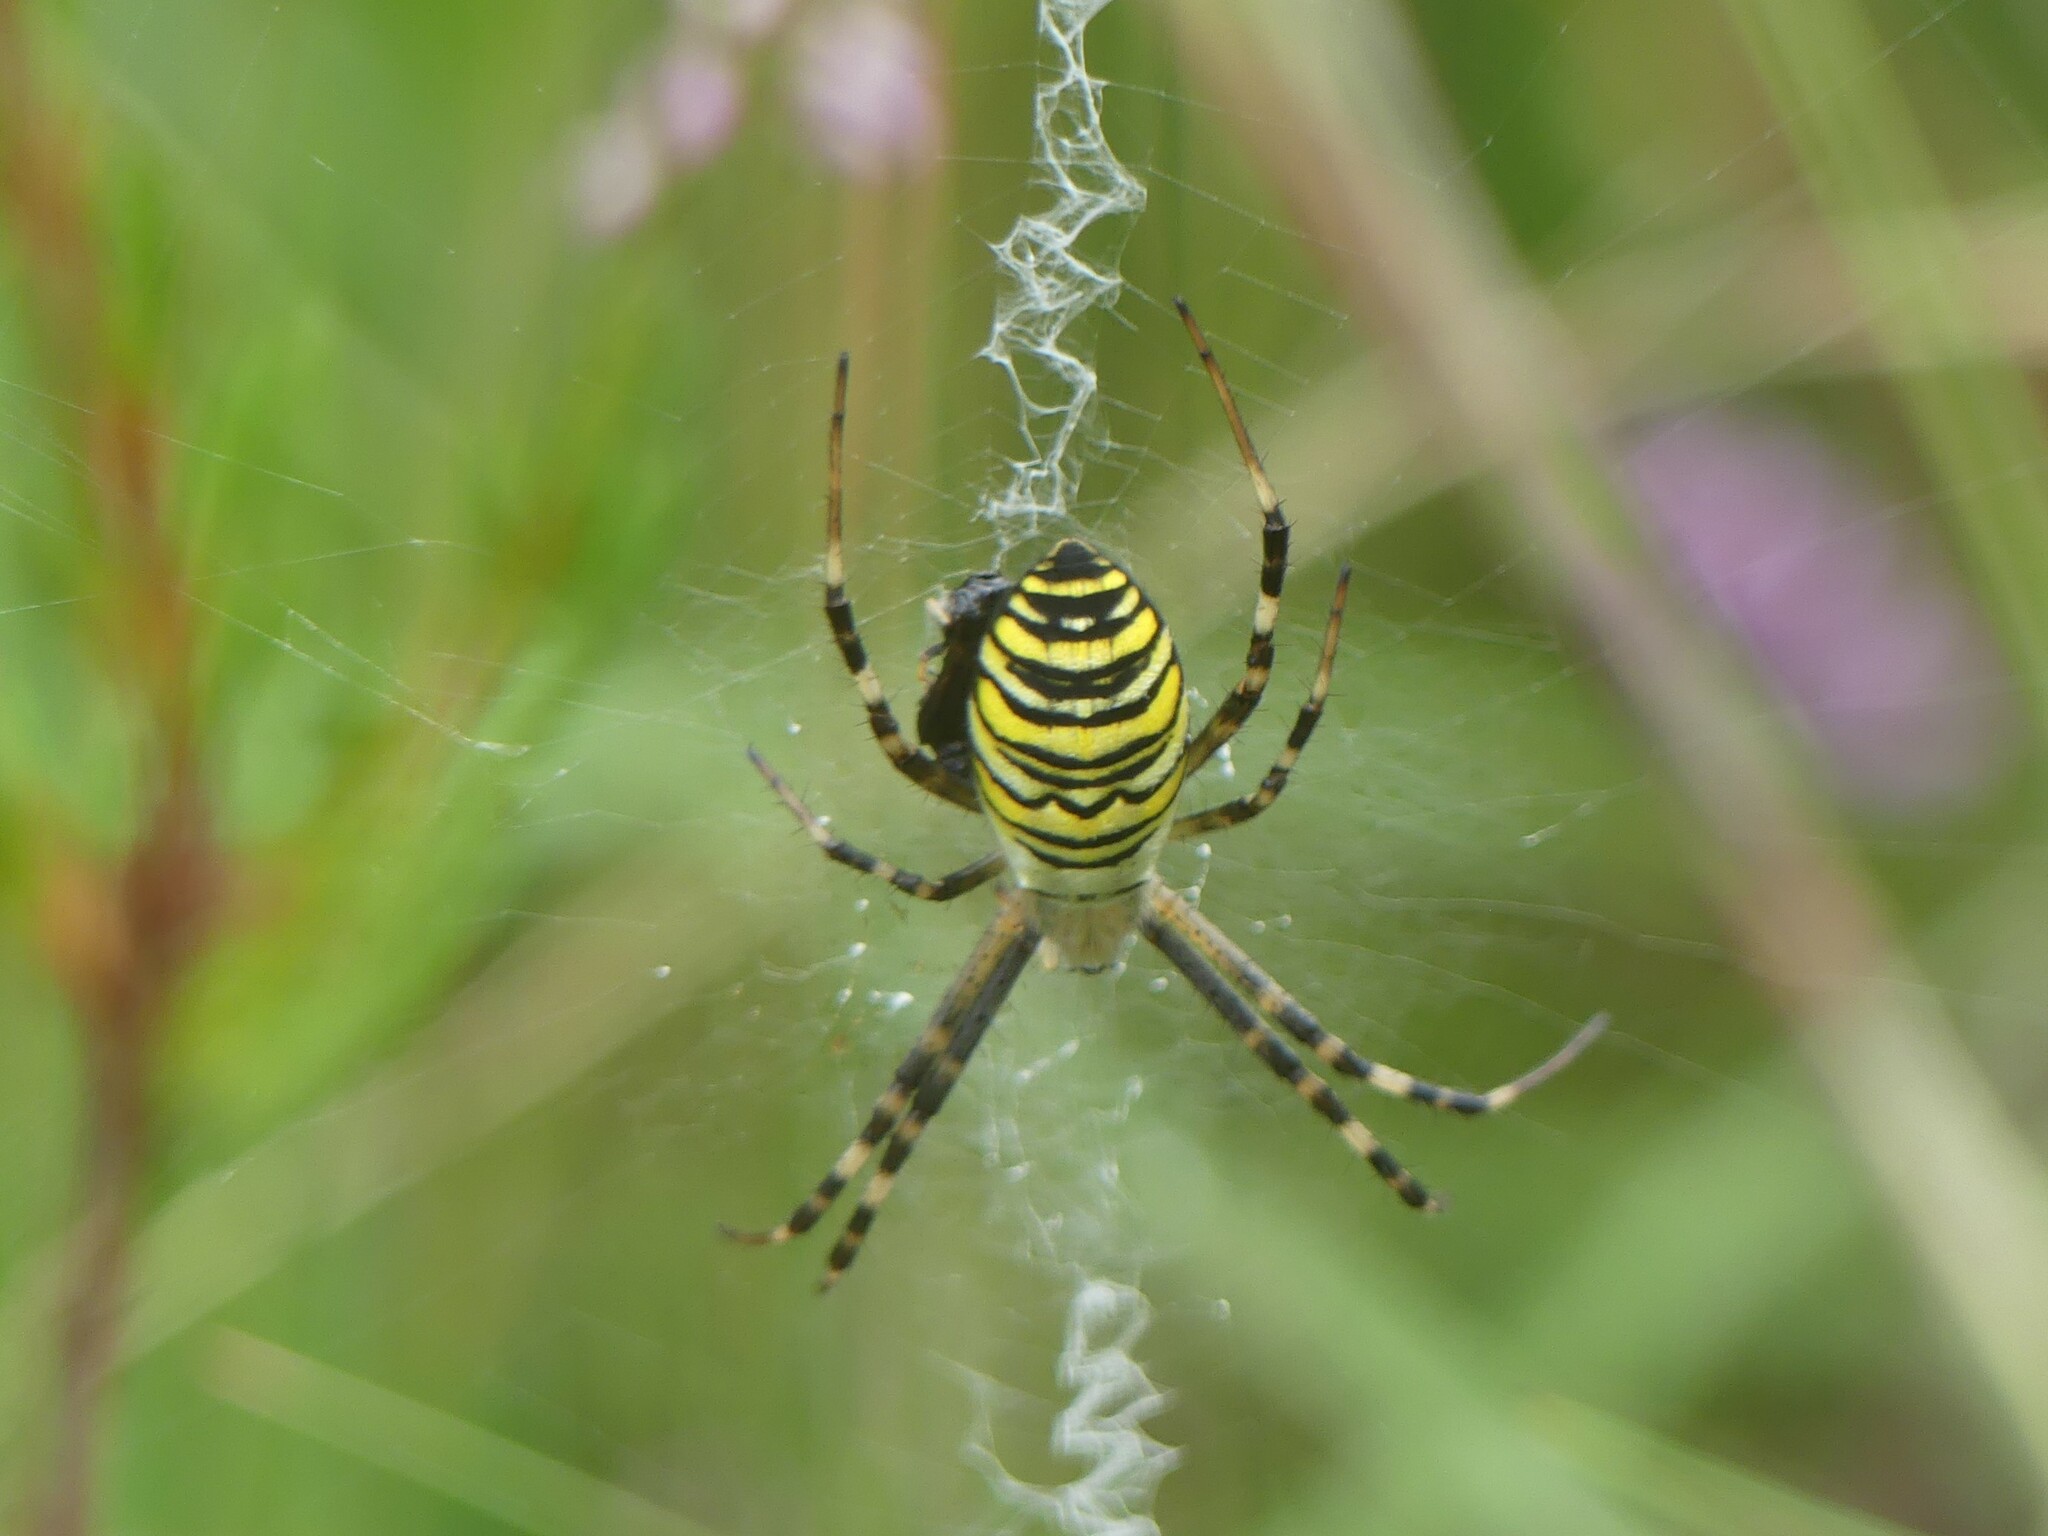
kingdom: Animalia
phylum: Arthropoda
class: Arachnida
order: Araneae
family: Araneidae
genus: Argiope
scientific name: Argiope bruennichi
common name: Wasp spider
